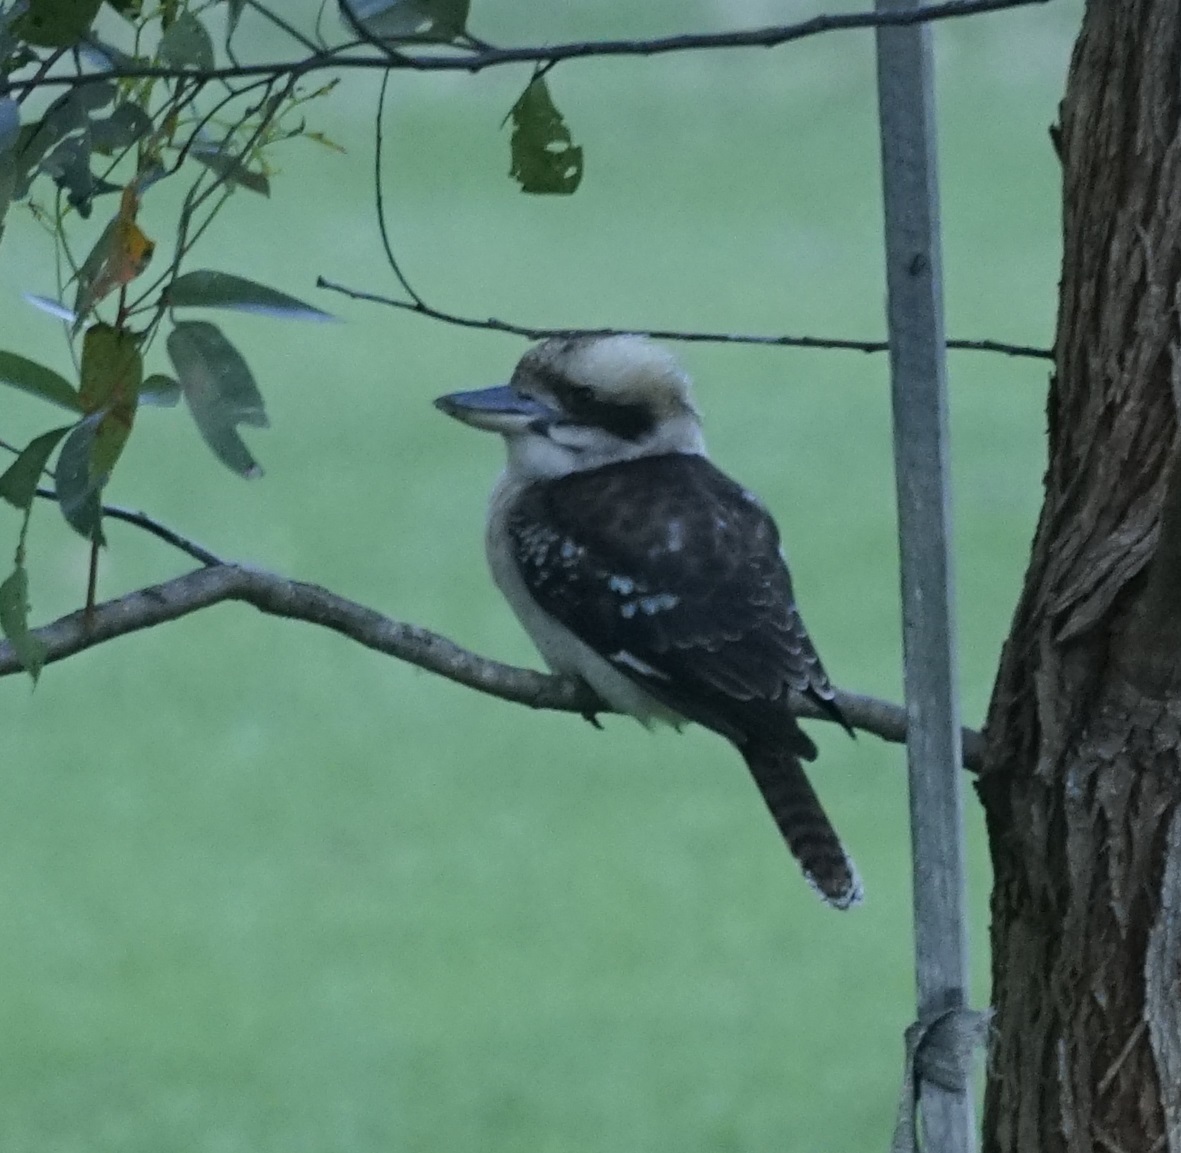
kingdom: Animalia
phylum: Chordata
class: Aves
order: Coraciiformes
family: Alcedinidae
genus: Dacelo
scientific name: Dacelo novaeguineae
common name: Laughing kookaburra
